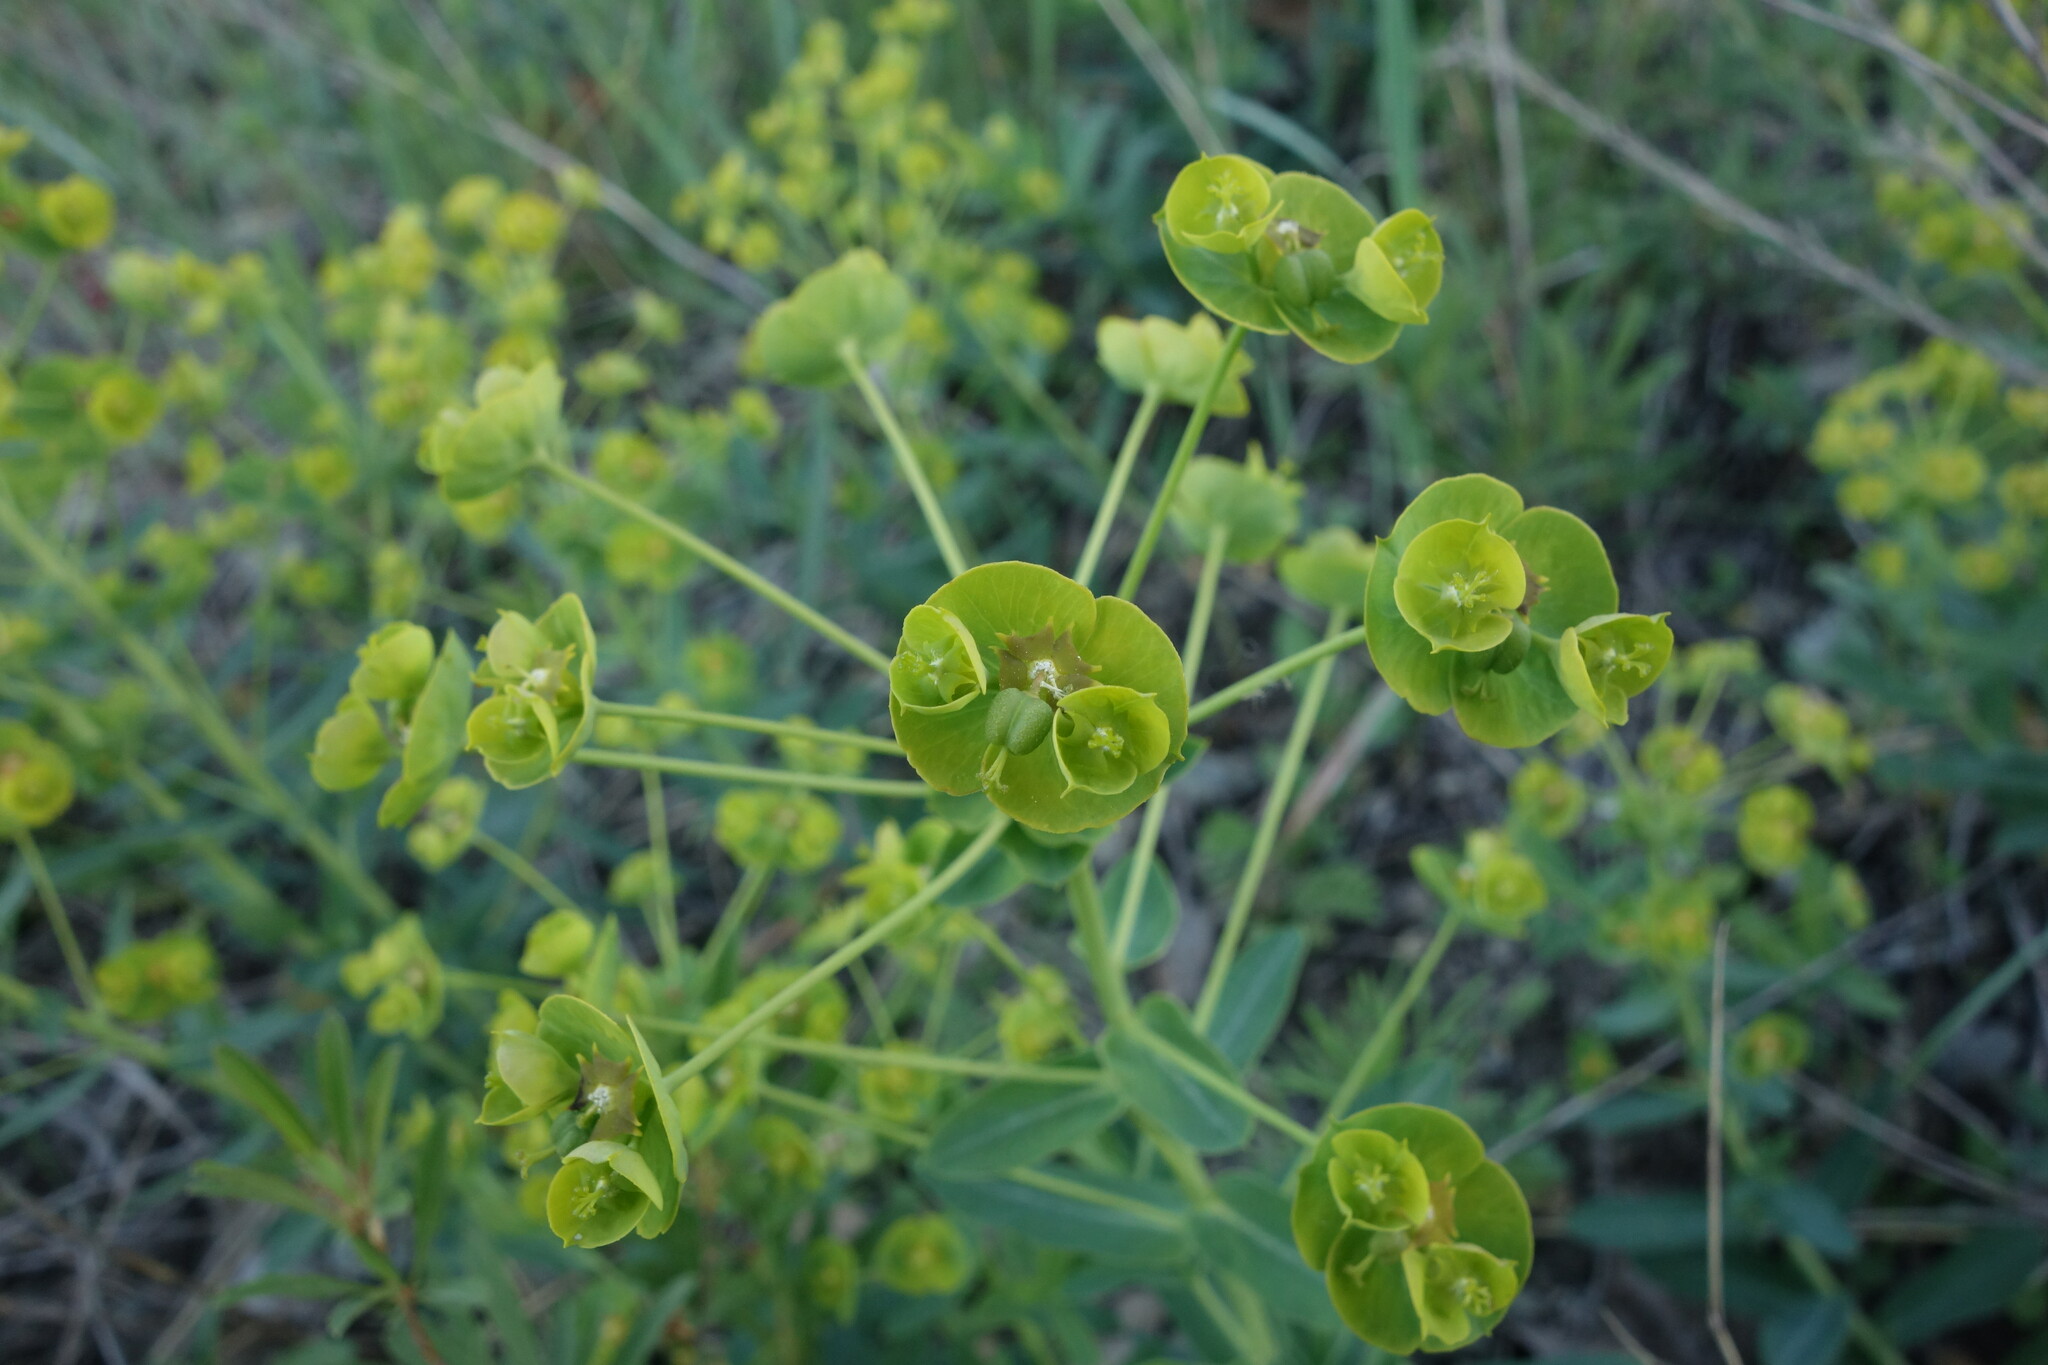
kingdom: Plantae
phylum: Tracheophyta
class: Magnoliopsida
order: Malpighiales
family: Euphorbiaceae
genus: Euphorbia
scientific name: Euphorbia agraria
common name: Urban spurge
